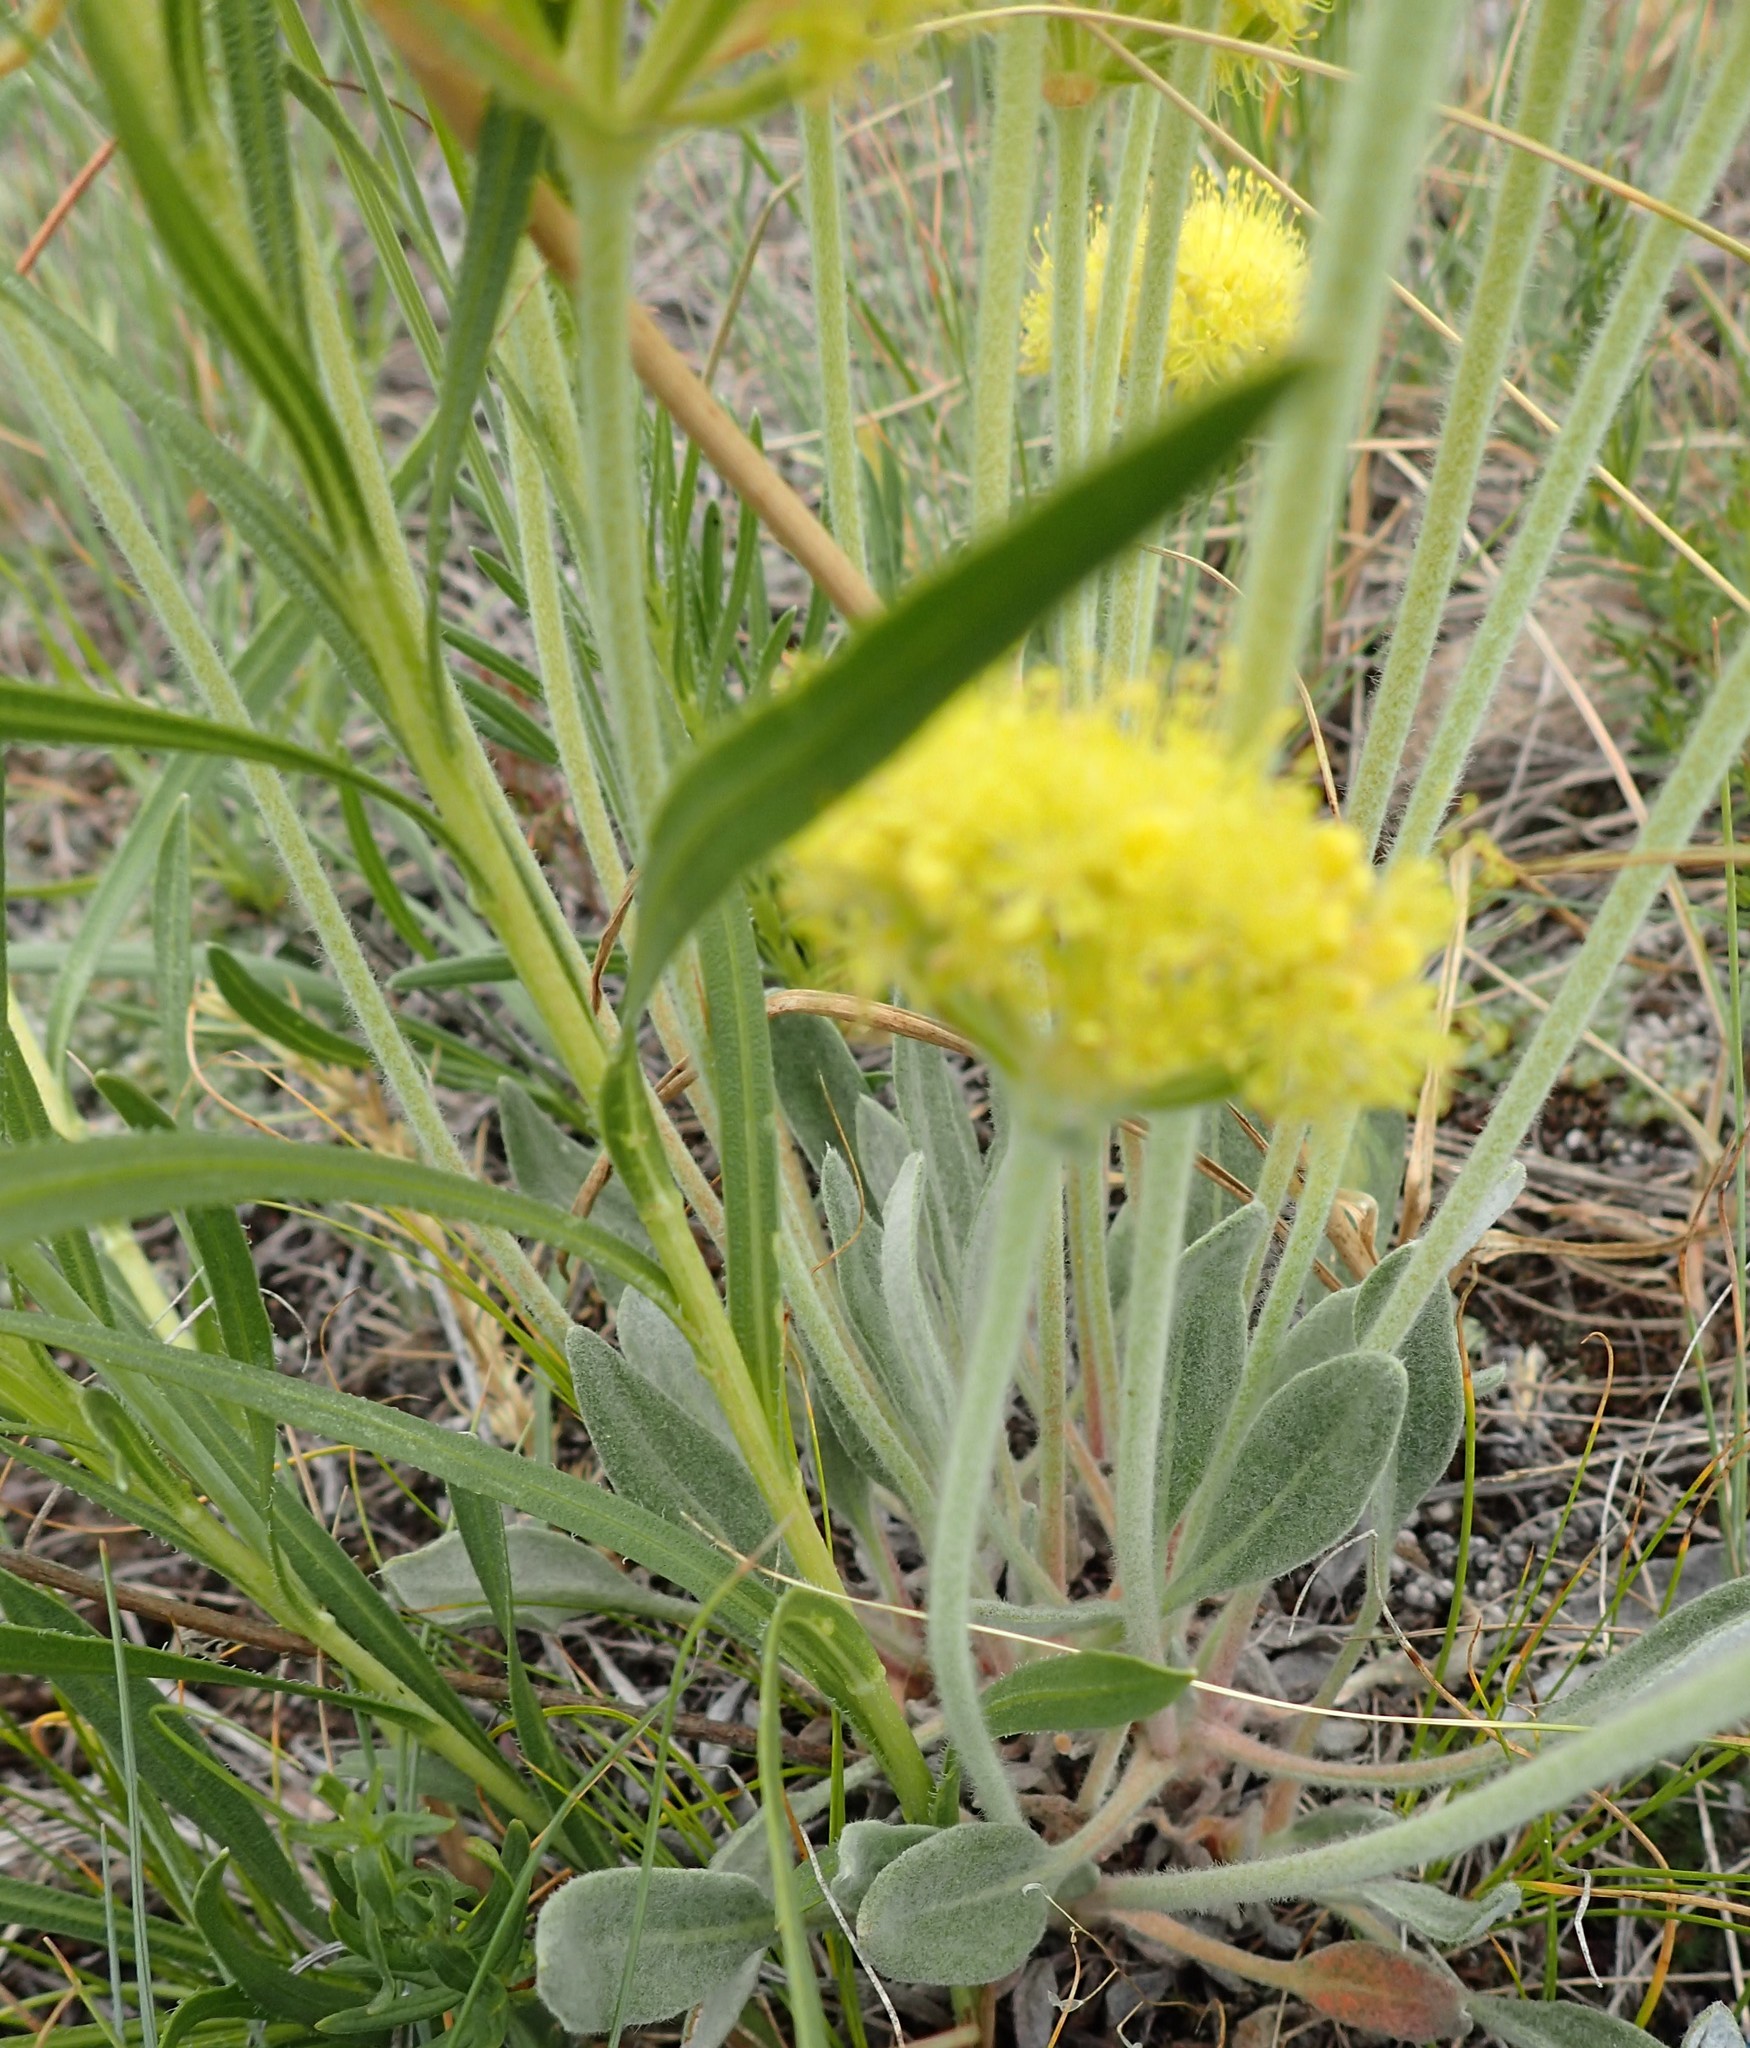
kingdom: Plantae
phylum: Tracheophyta
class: Magnoliopsida
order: Caryophyllales
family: Polygonaceae
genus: Eriogonum
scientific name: Eriogonum flavum
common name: Alpine golden wild buckwheat
